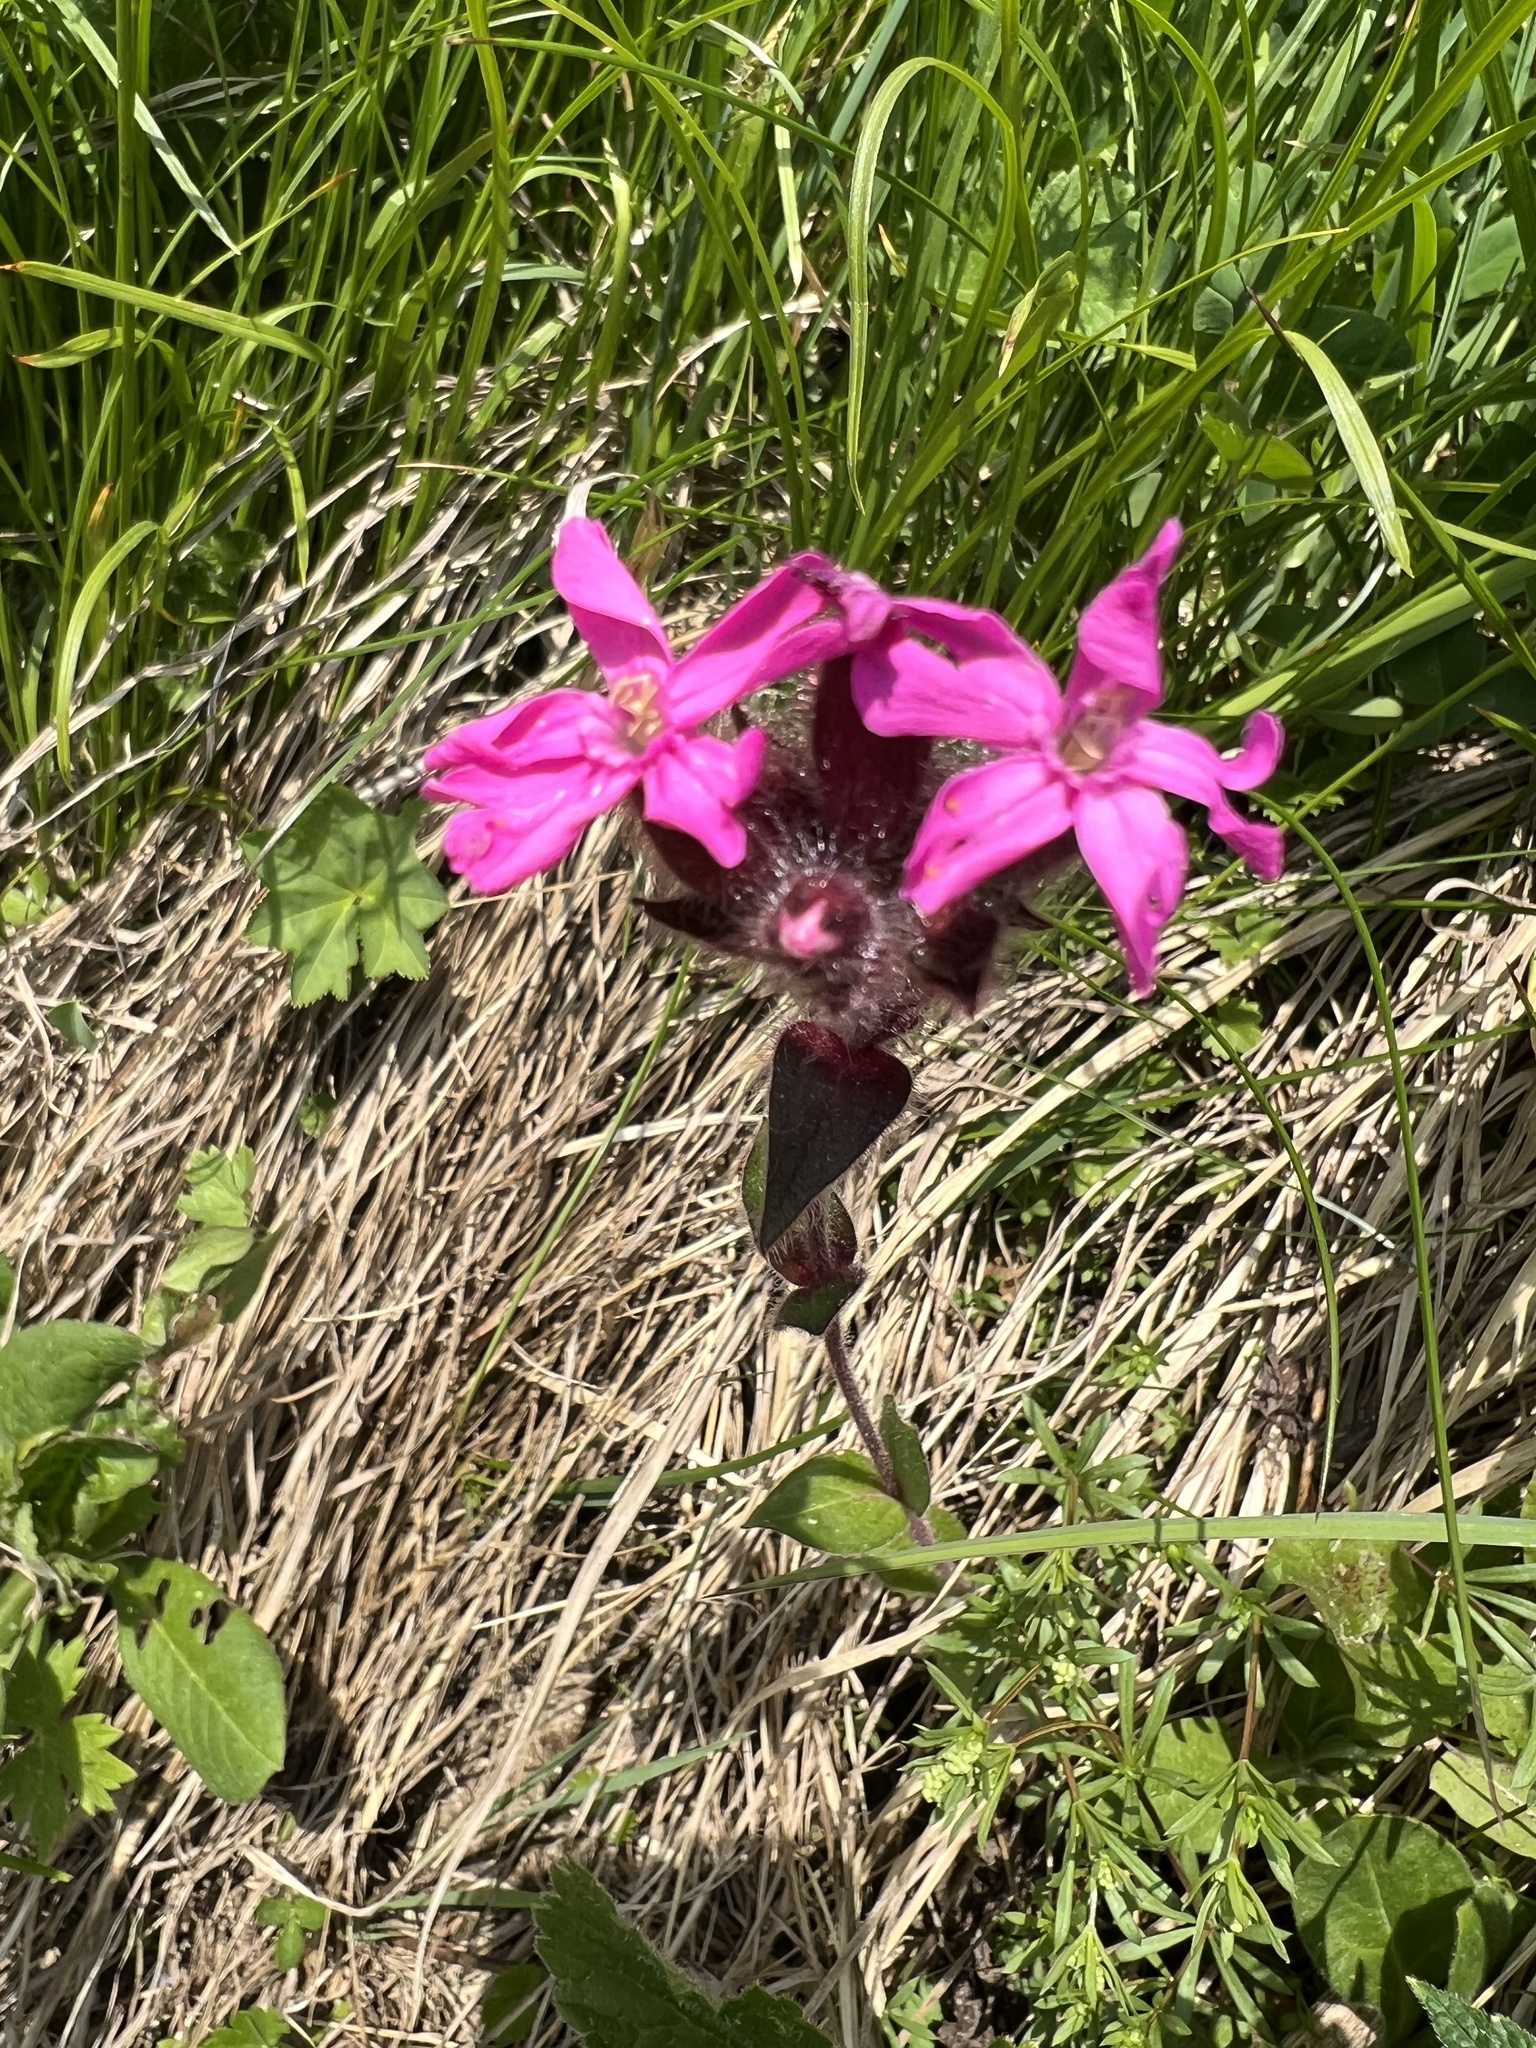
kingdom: Plantae
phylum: Tracheophyta
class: Magnoliopsida
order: Caryophyllales
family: Caryophyllaceae
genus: Silene
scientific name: Silene dioica
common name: Red campion
